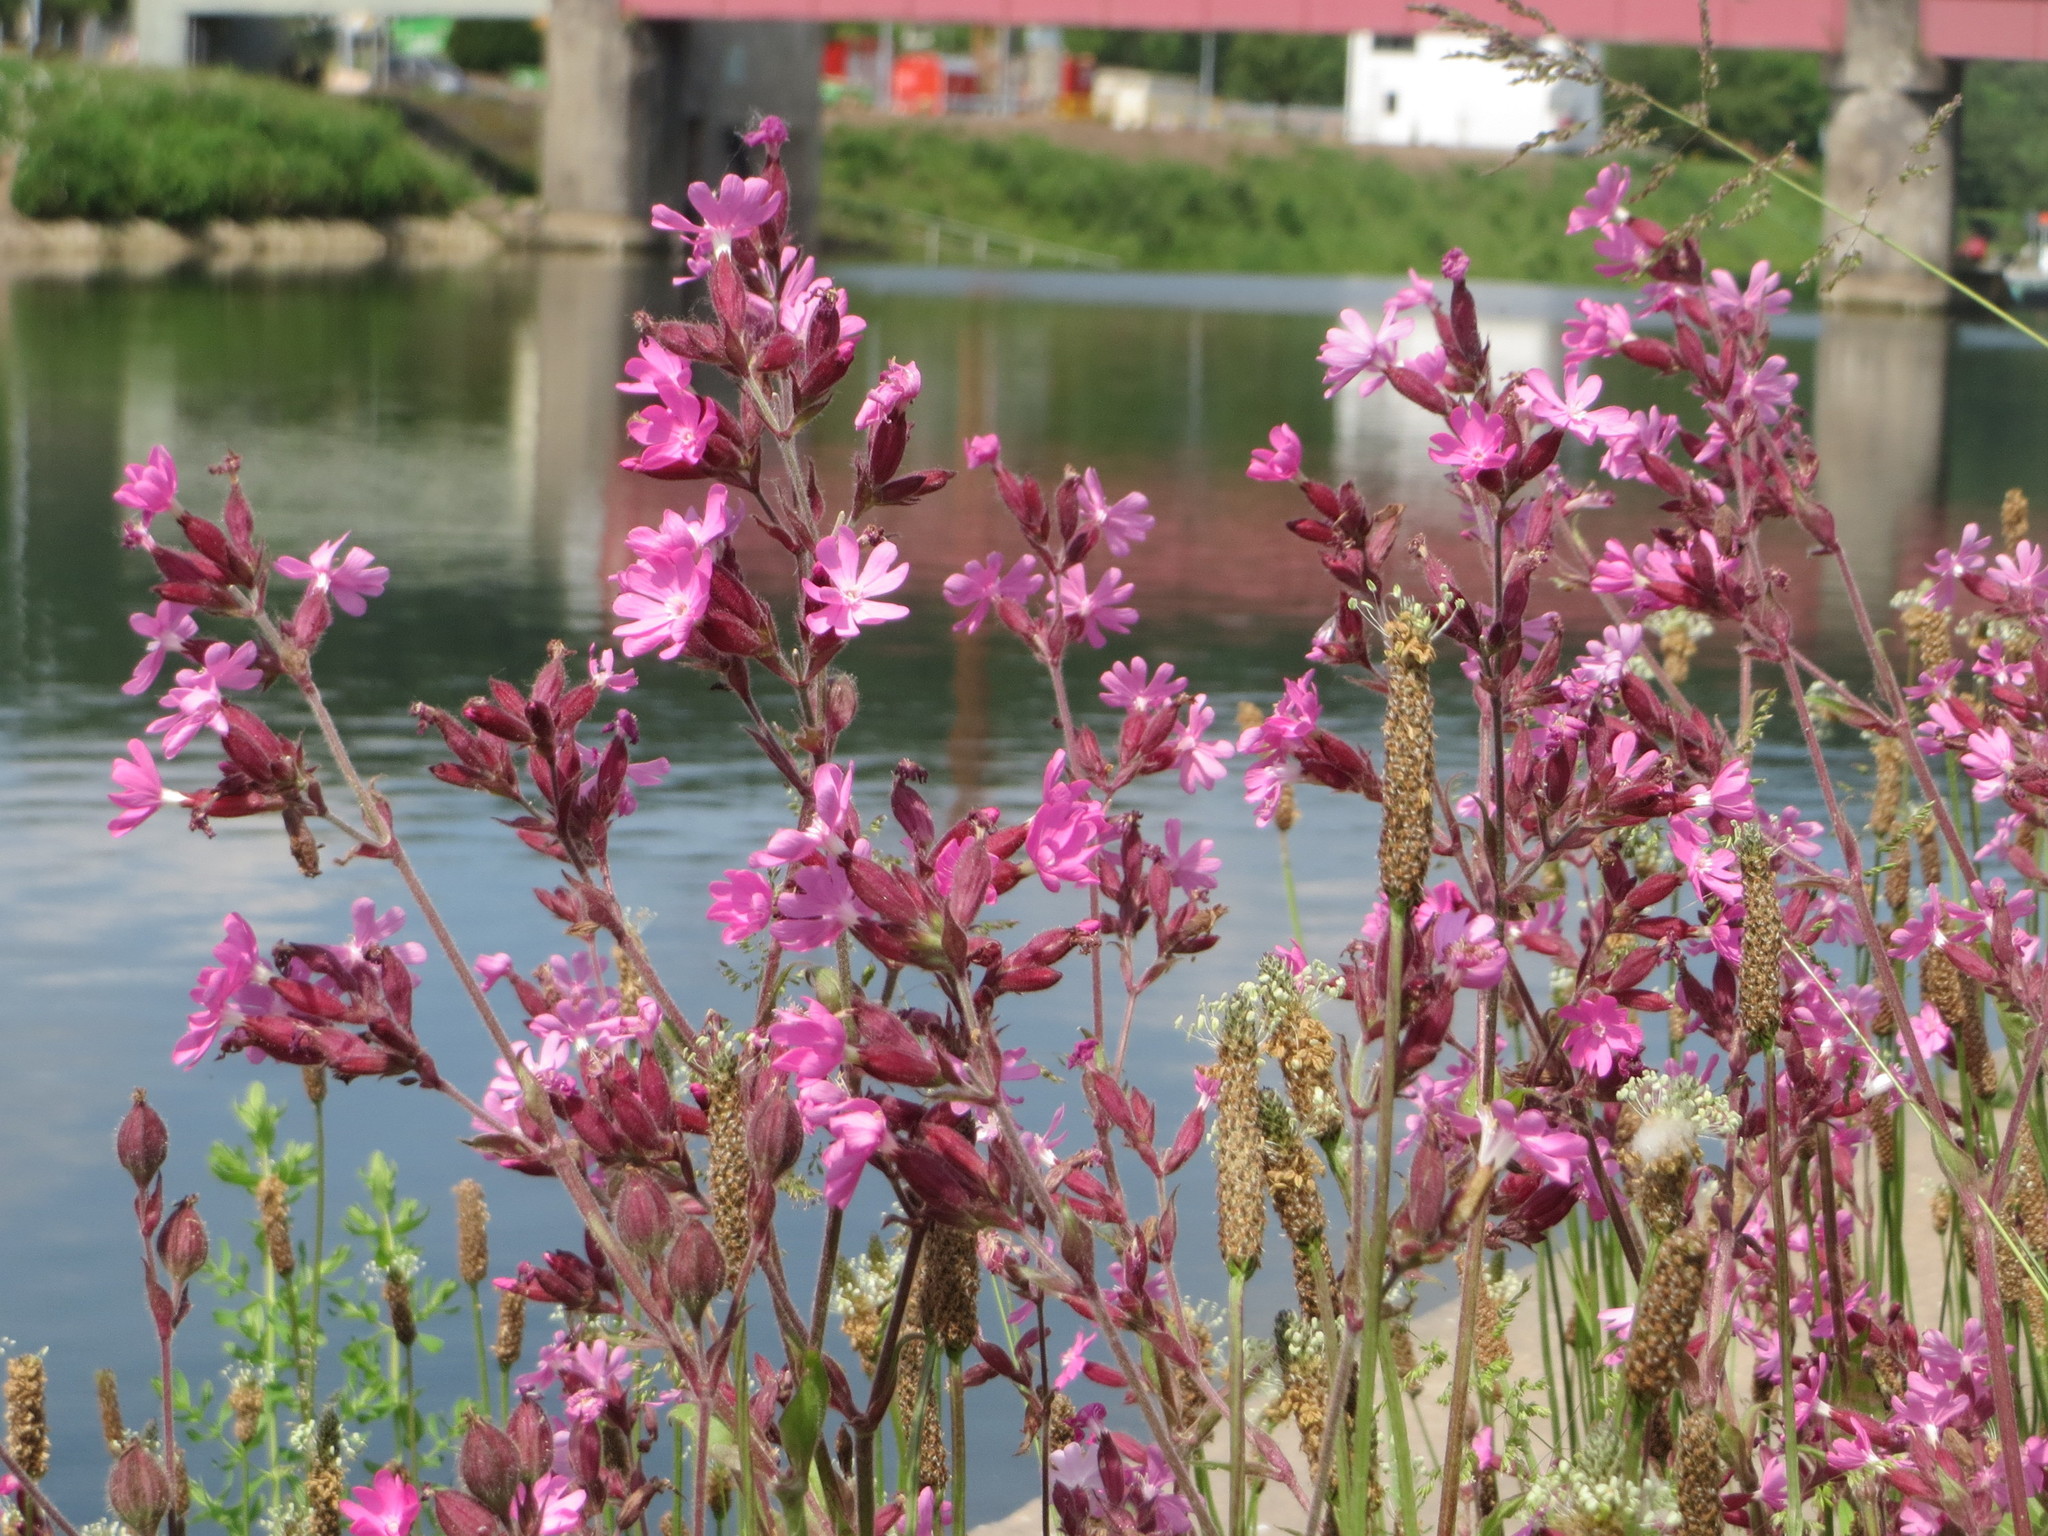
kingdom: Plantae
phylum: Tracheophyta
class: Magnoliopsida
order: Caryophyllales
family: Caryophyllaceae
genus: Silene
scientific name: Silene dioica
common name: Red campion
